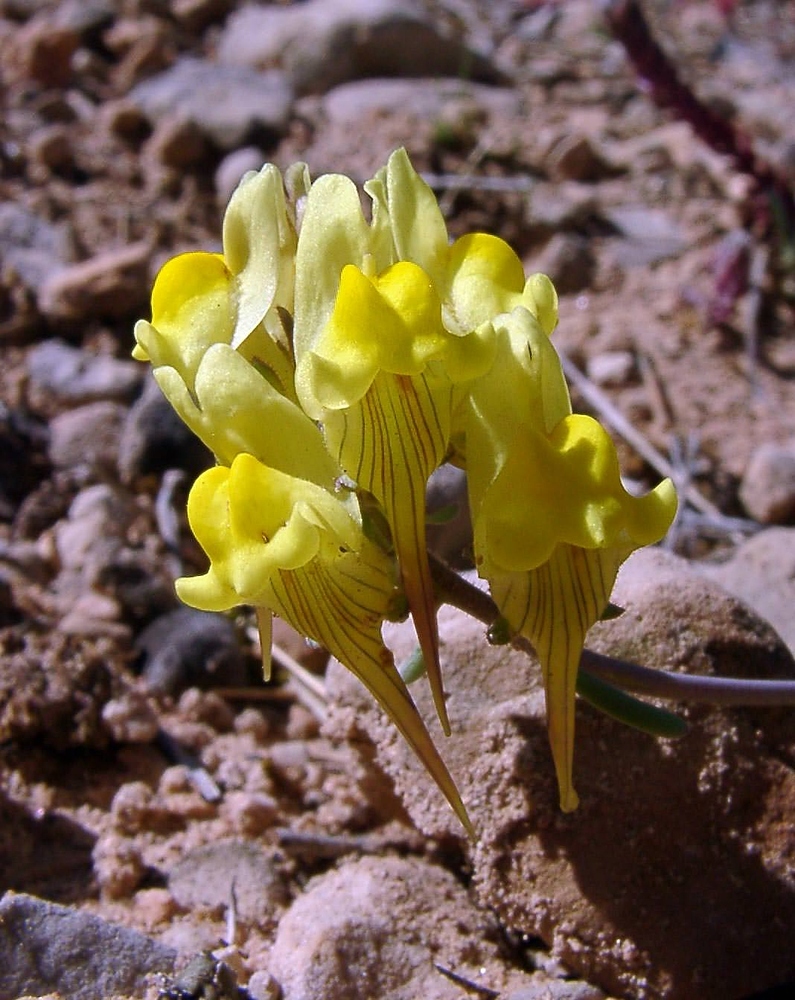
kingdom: Plantae
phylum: Tracheophyta
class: Magnoliopsida
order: Lamiales
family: Plantaginaceae
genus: Linaria
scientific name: Linaria supina
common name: Prostrate toadflax
